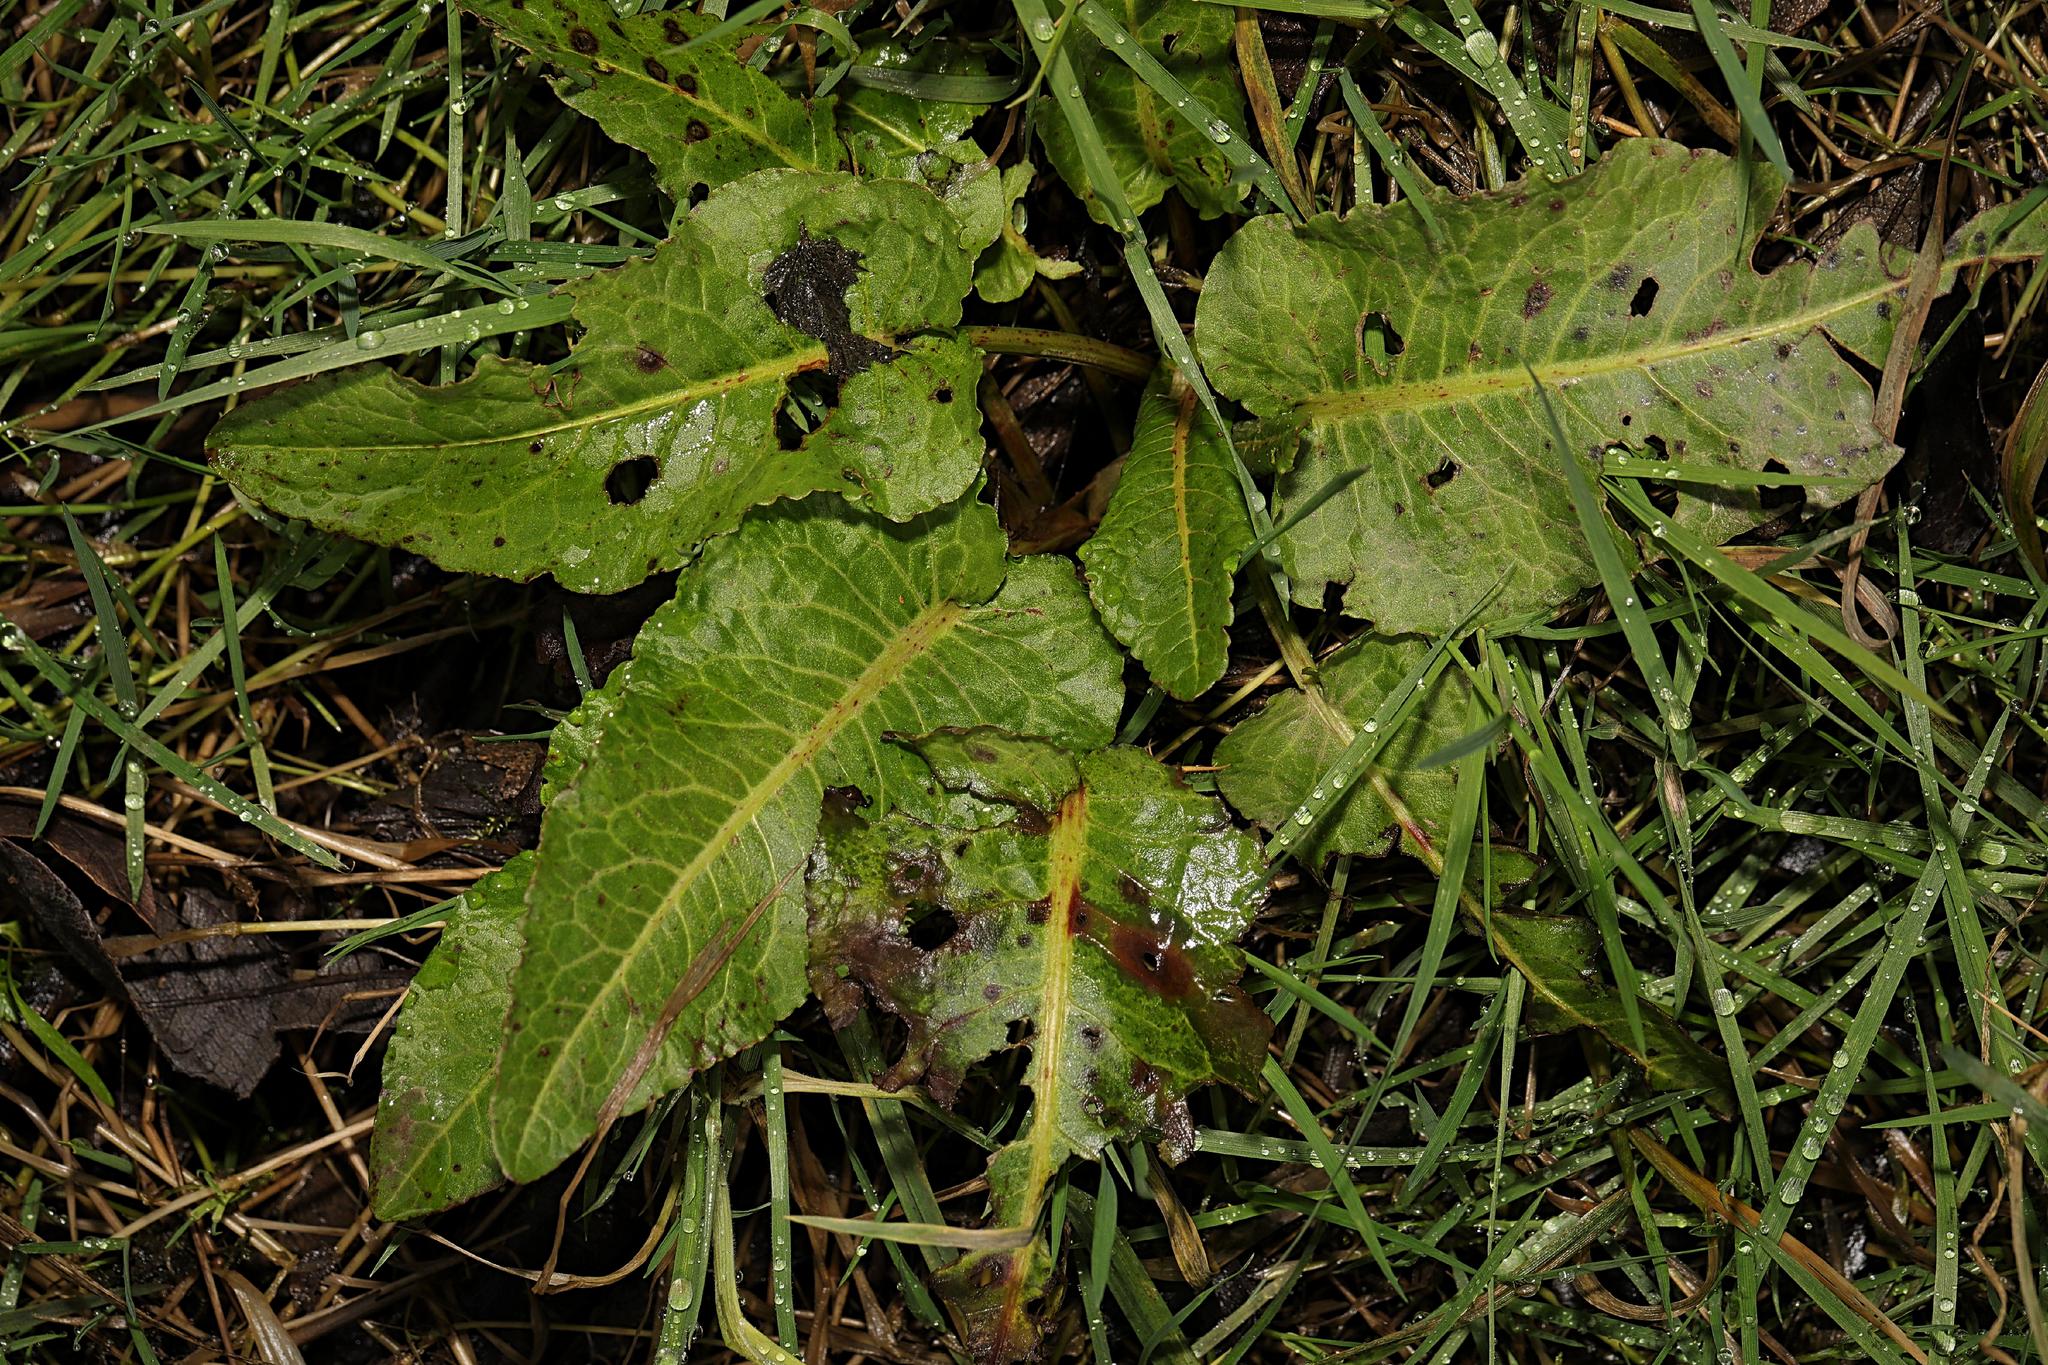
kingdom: Plantae
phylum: Tracheophyta
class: Magnoliopsida
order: Caryophyllales
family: Polygonaceae
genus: Rumex
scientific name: Rumex obtusifolius
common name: Bitter dock
